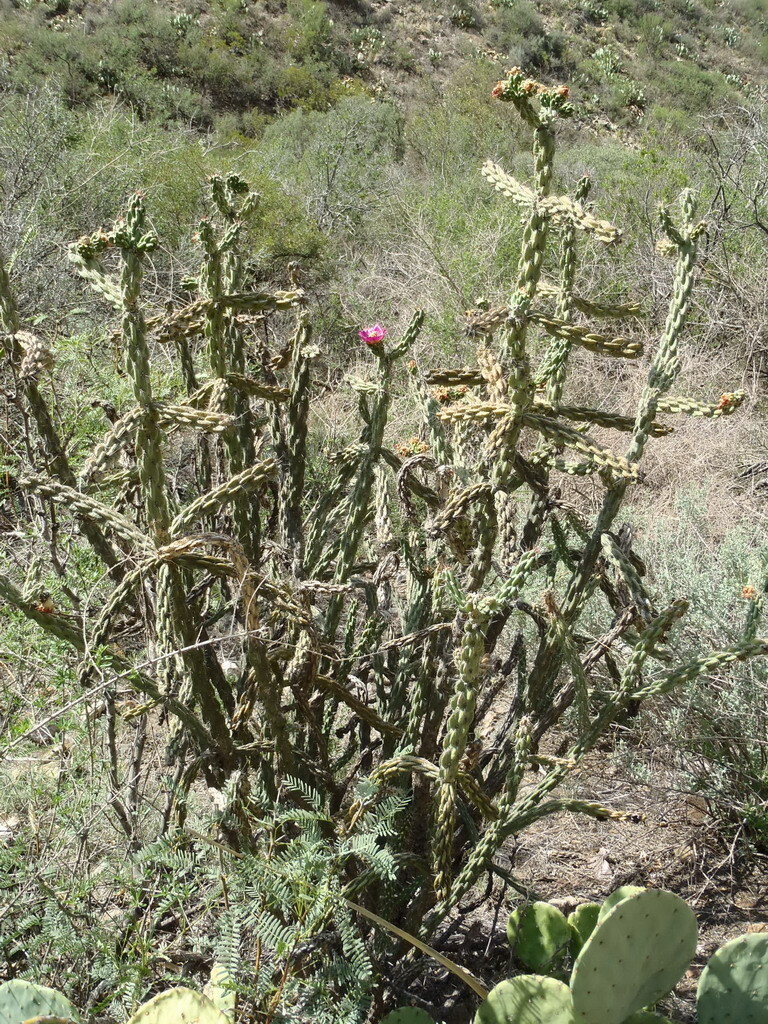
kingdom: Plantae
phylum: Tracheophyta
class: Magnoliopsida
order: Caryophyllales
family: Cactaceae
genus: Cylindropuntia
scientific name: Cylindropuntia imbricata
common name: Candelabrum cactus
